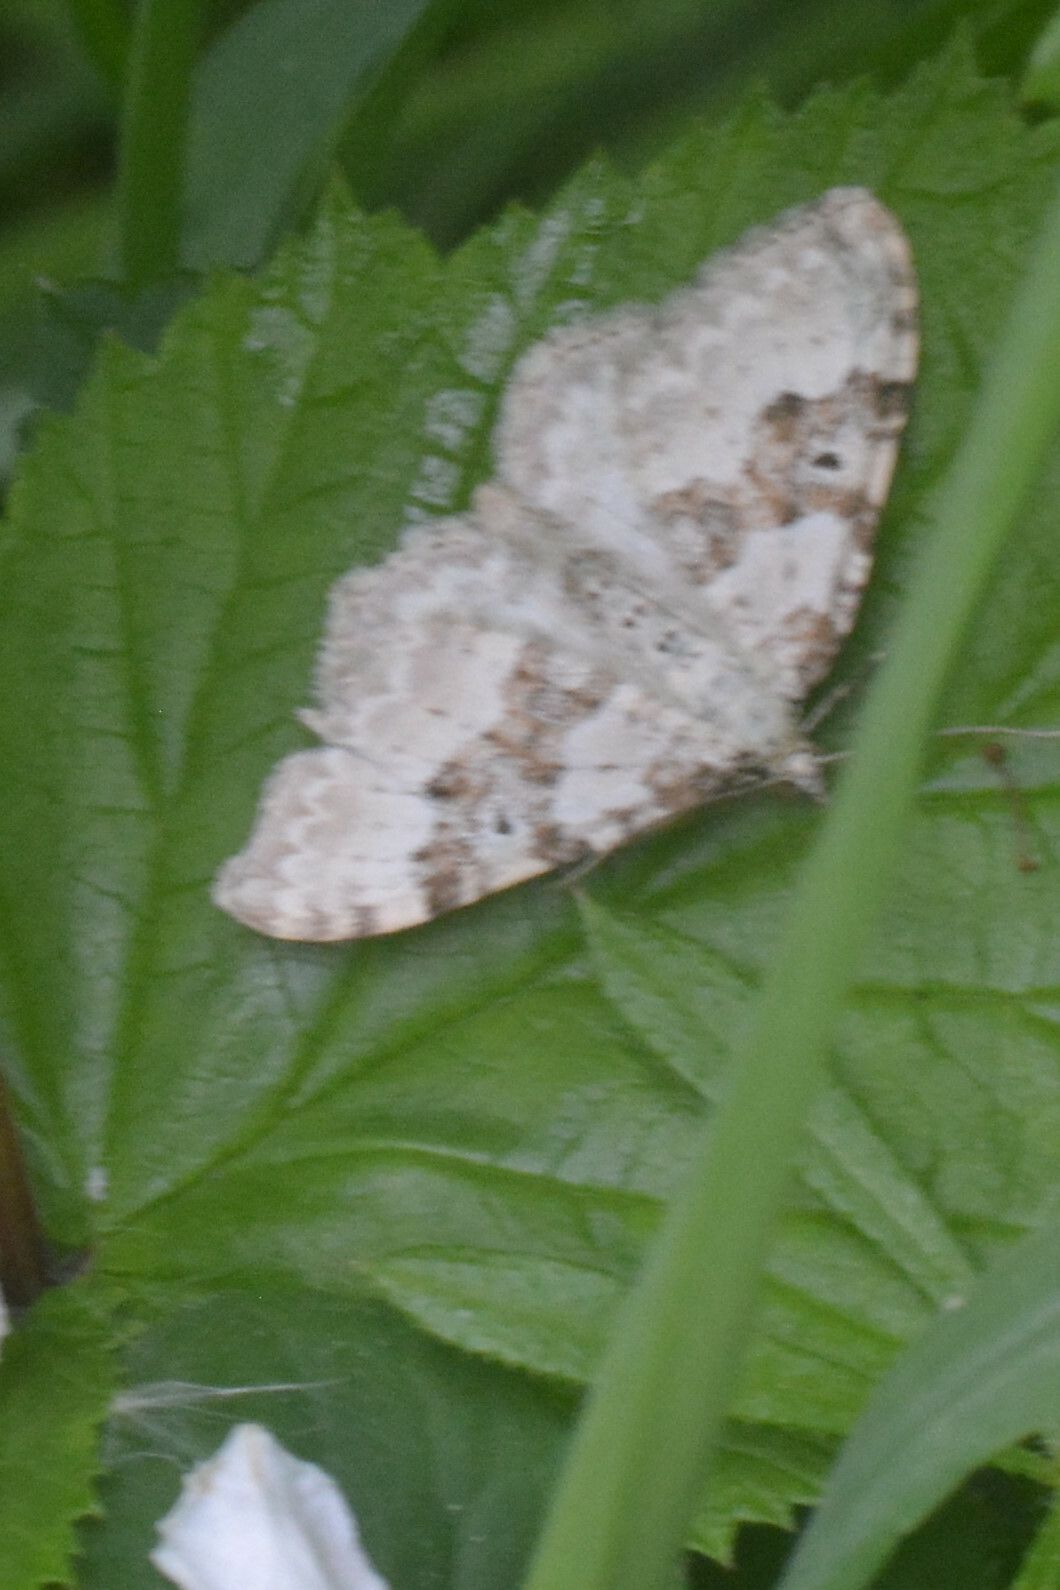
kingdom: Animalia
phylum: Arthropoda
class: Insecta
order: Lepidoptera
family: Geometridae
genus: Xanthorhoe
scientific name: Xanthorhoe montanata
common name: Silver-ground carpet
